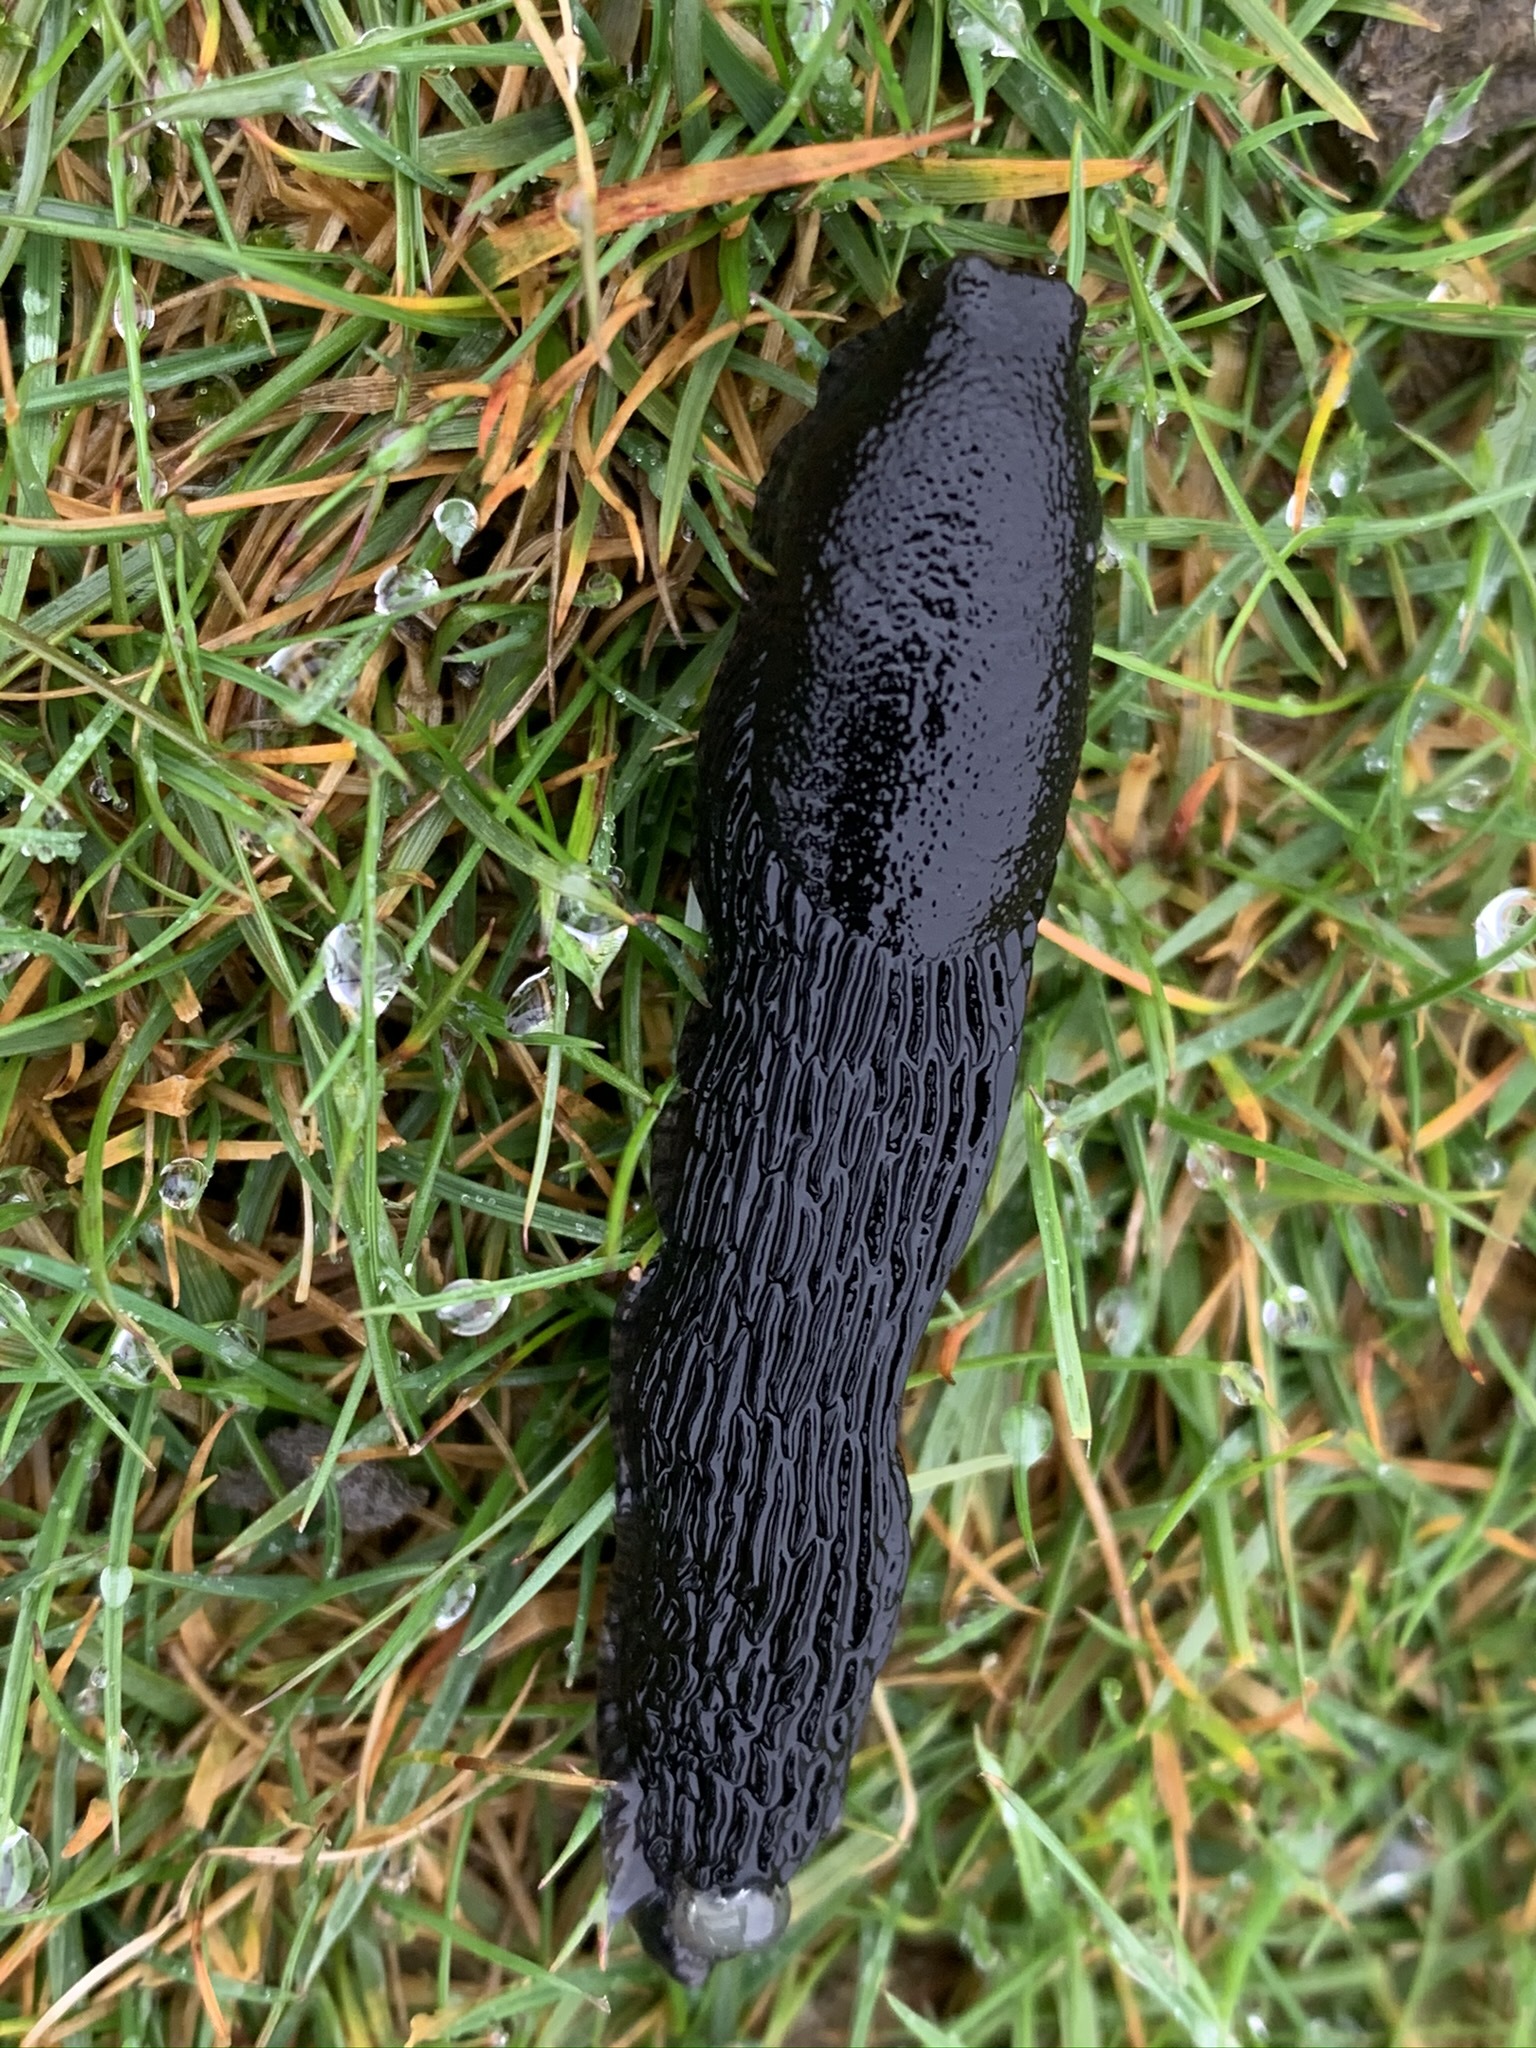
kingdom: Animalia
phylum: Mollusca
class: Gastropoda
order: Stylommatophora
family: Arionidae
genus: Arion
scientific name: Arion
